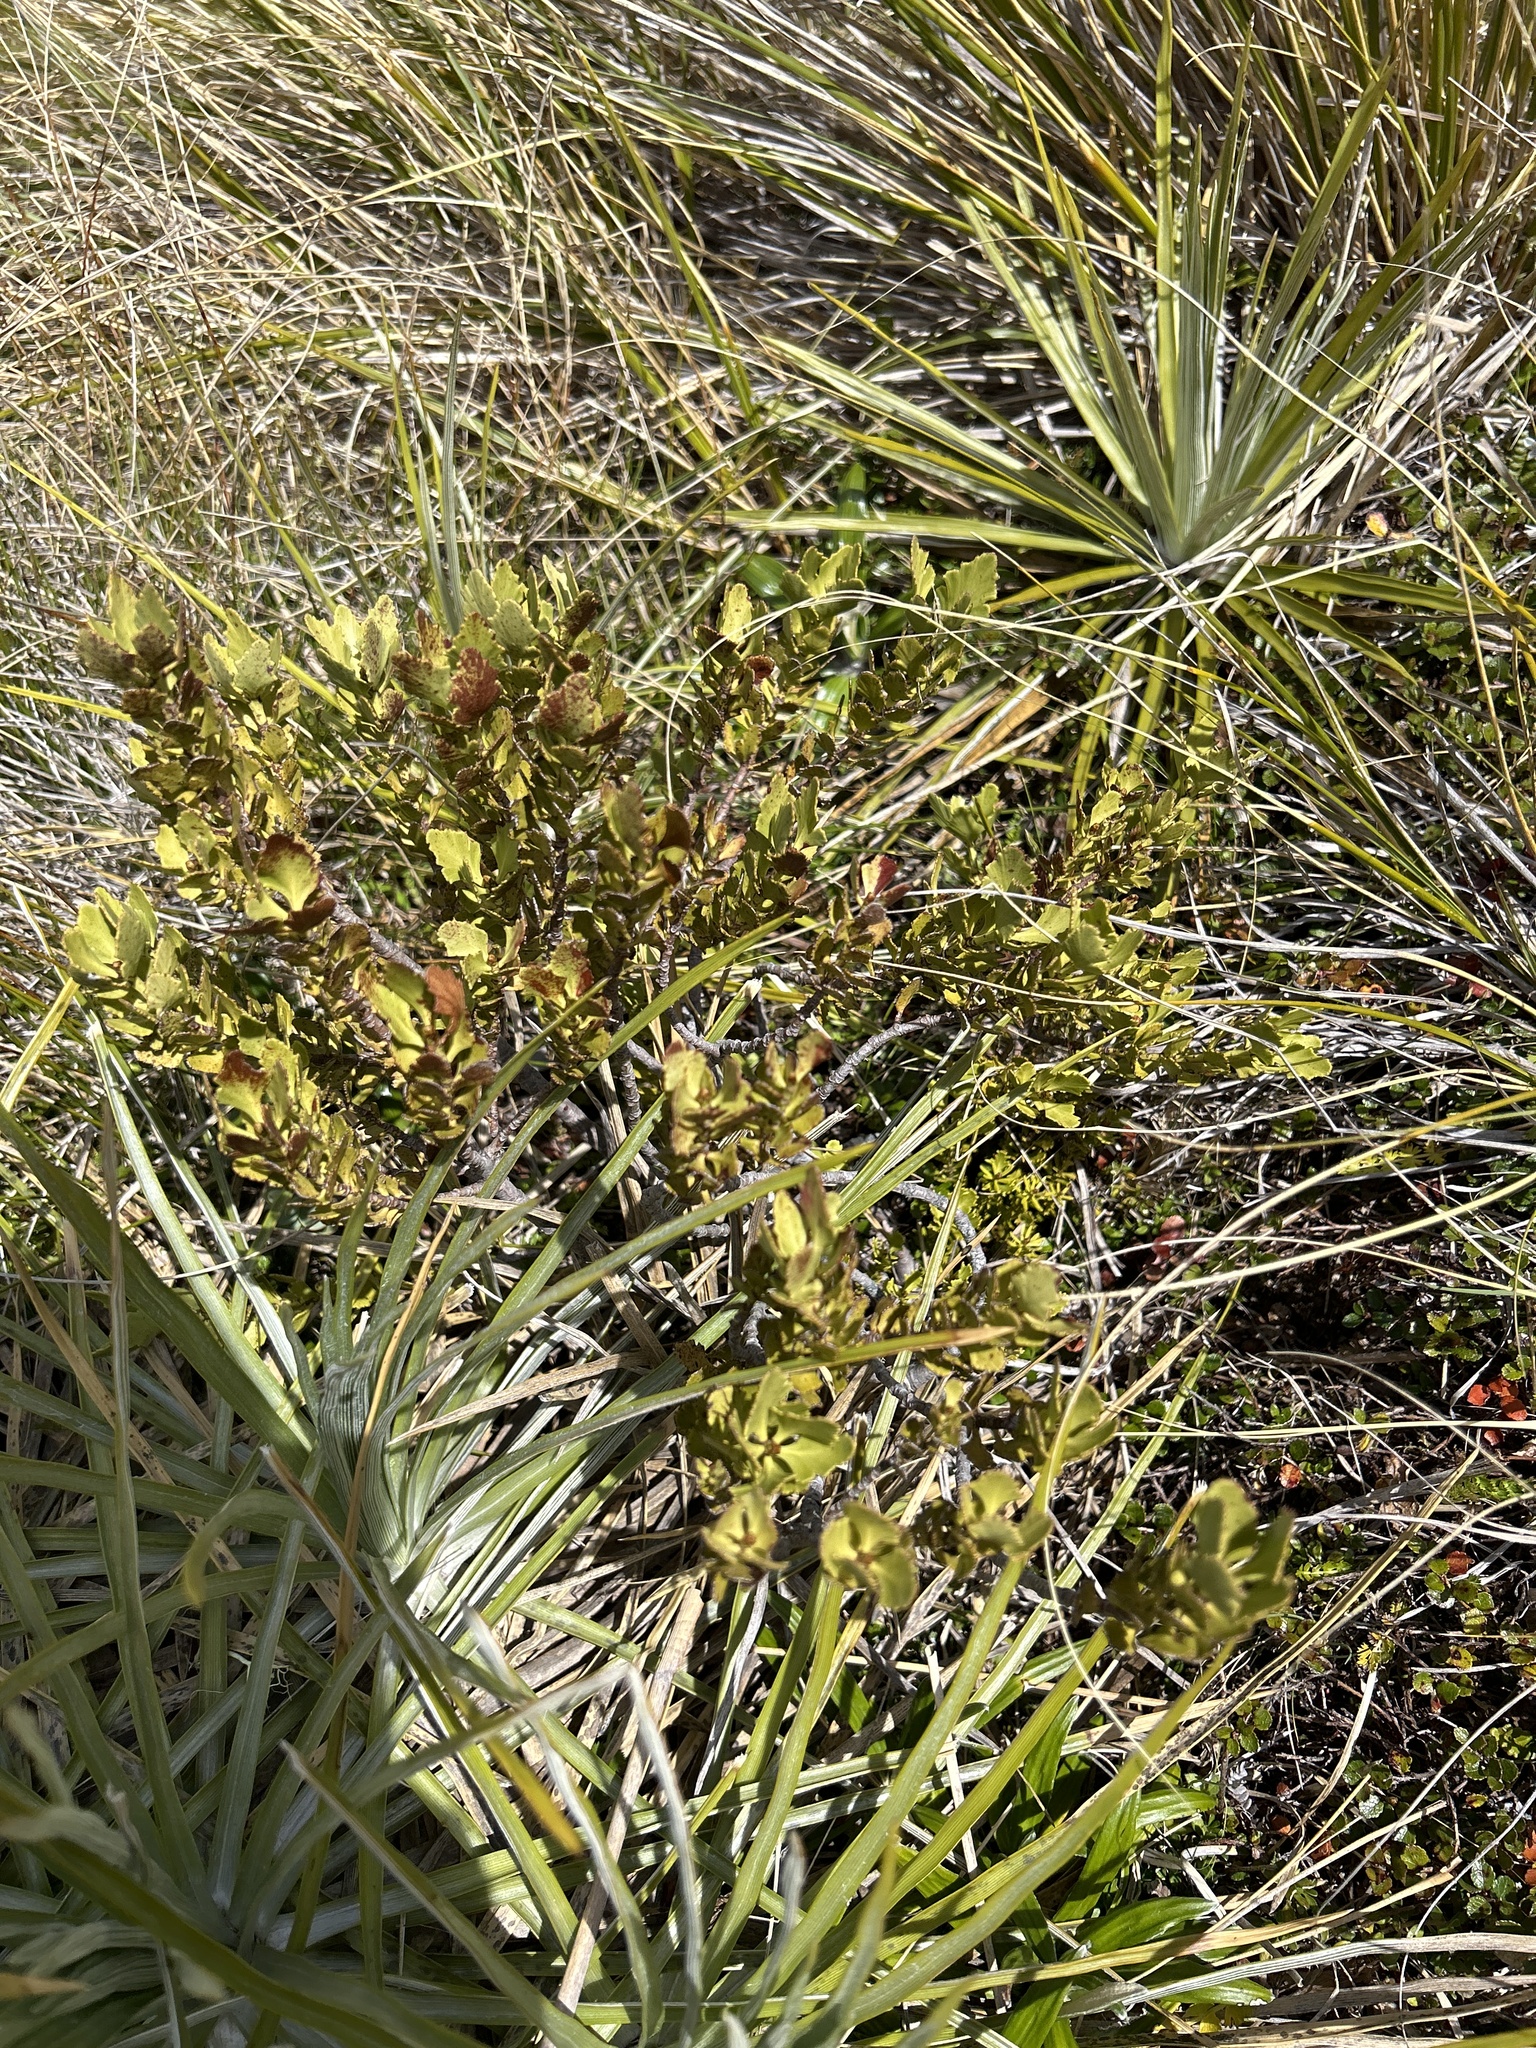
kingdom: Plantae
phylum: Tracheophyta
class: Pinopsida
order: Pinales
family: Phyllocladaceae
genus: Phyllocladus
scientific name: Phyllocladus trichomanoides
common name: Celery pine
